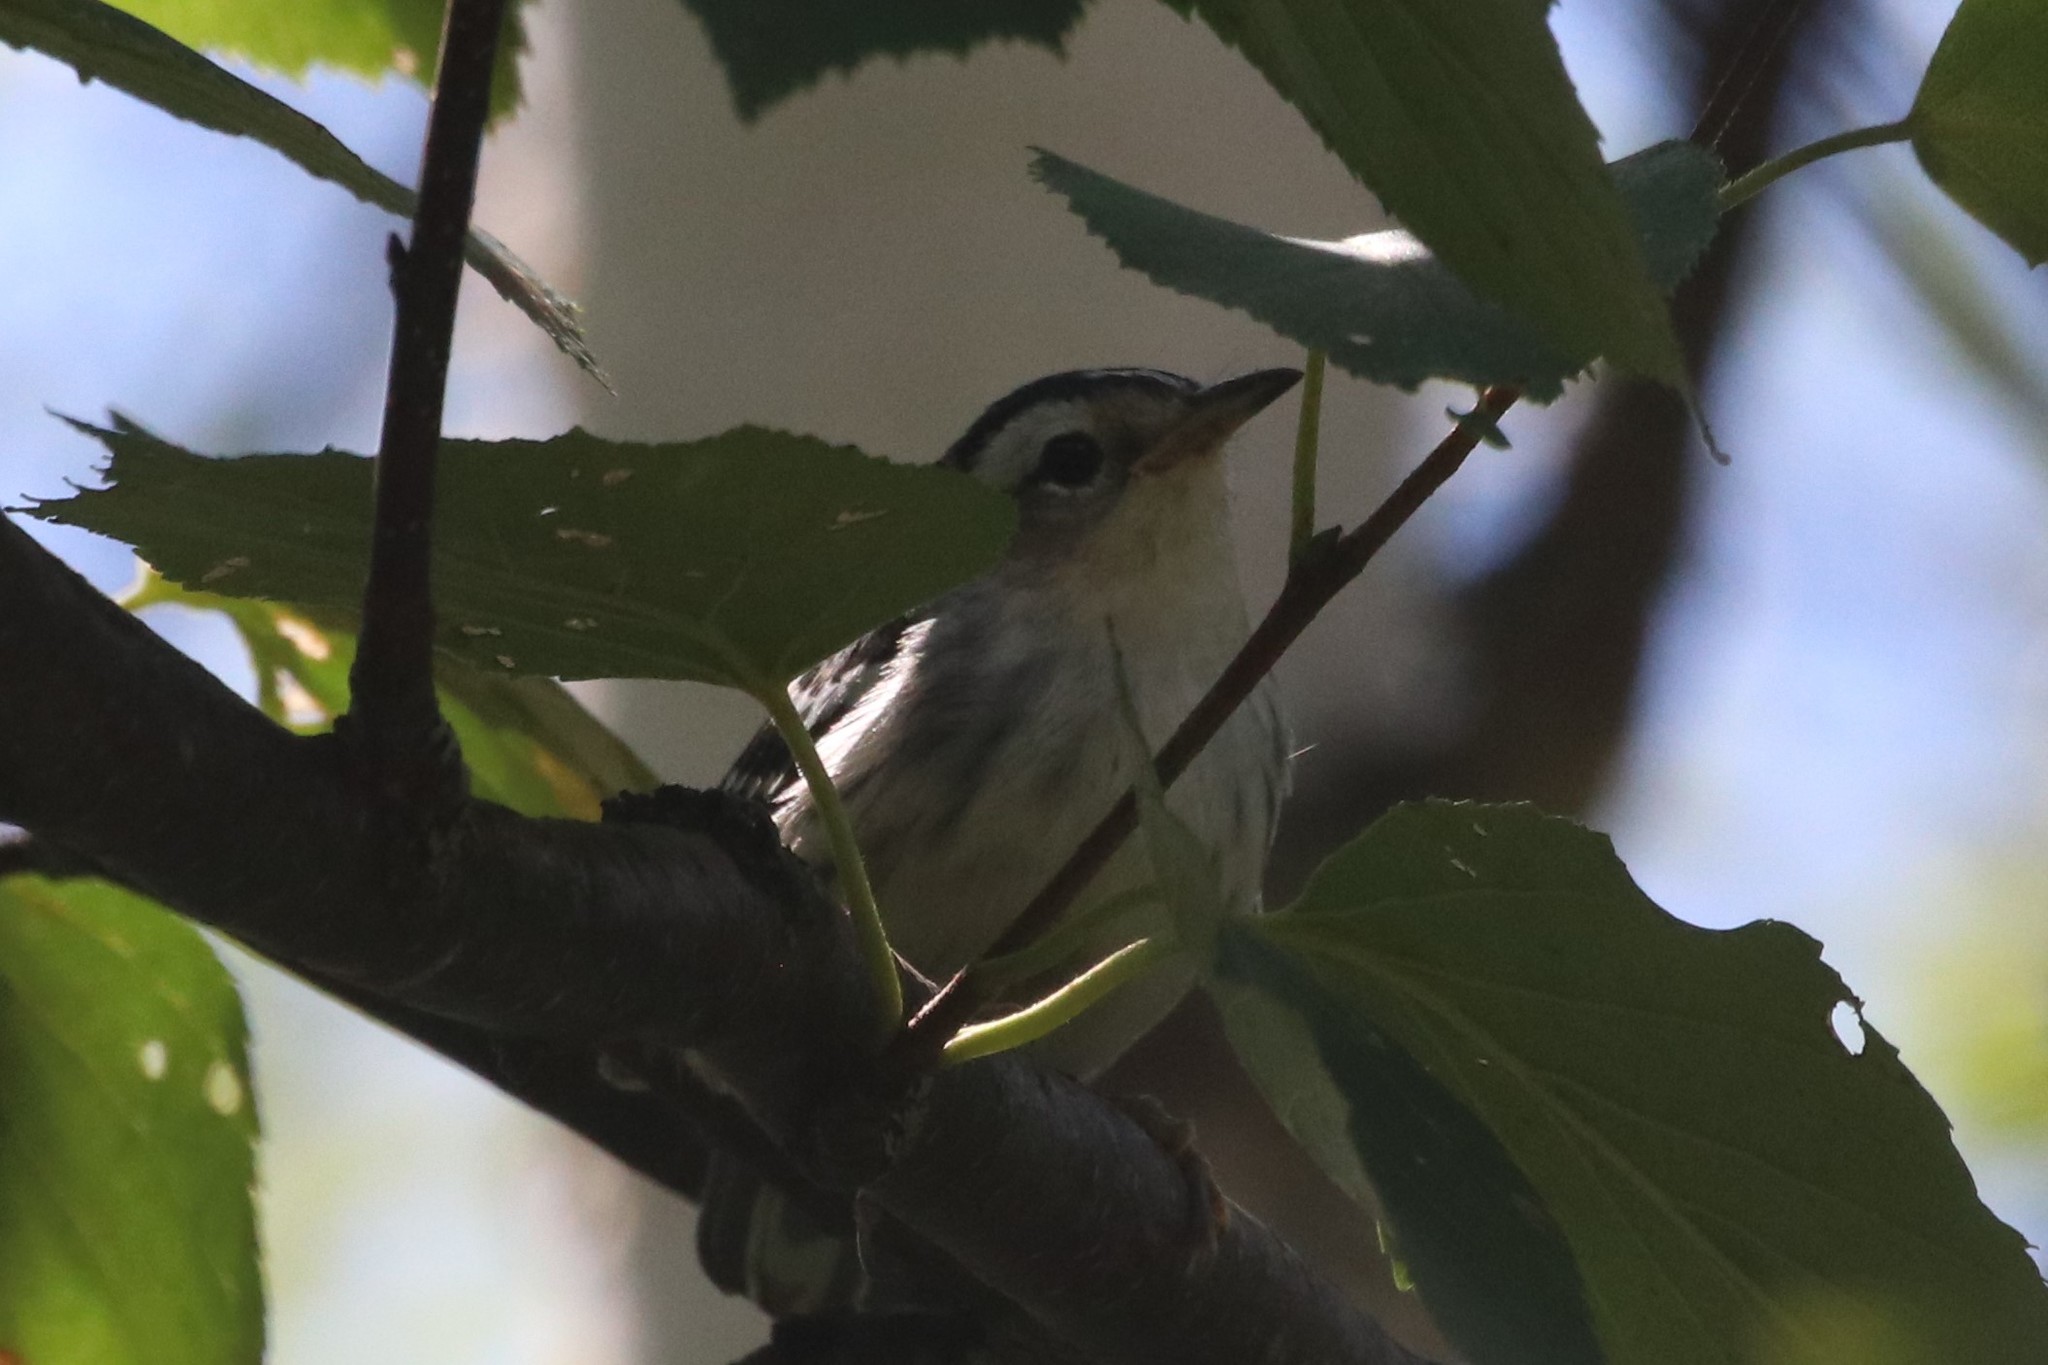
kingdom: Animalia
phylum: Chordata
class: Aves
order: Passeriformes
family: Parulidae
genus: Mniotilta
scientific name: Mniotilta varia
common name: Black-and-white warbler
